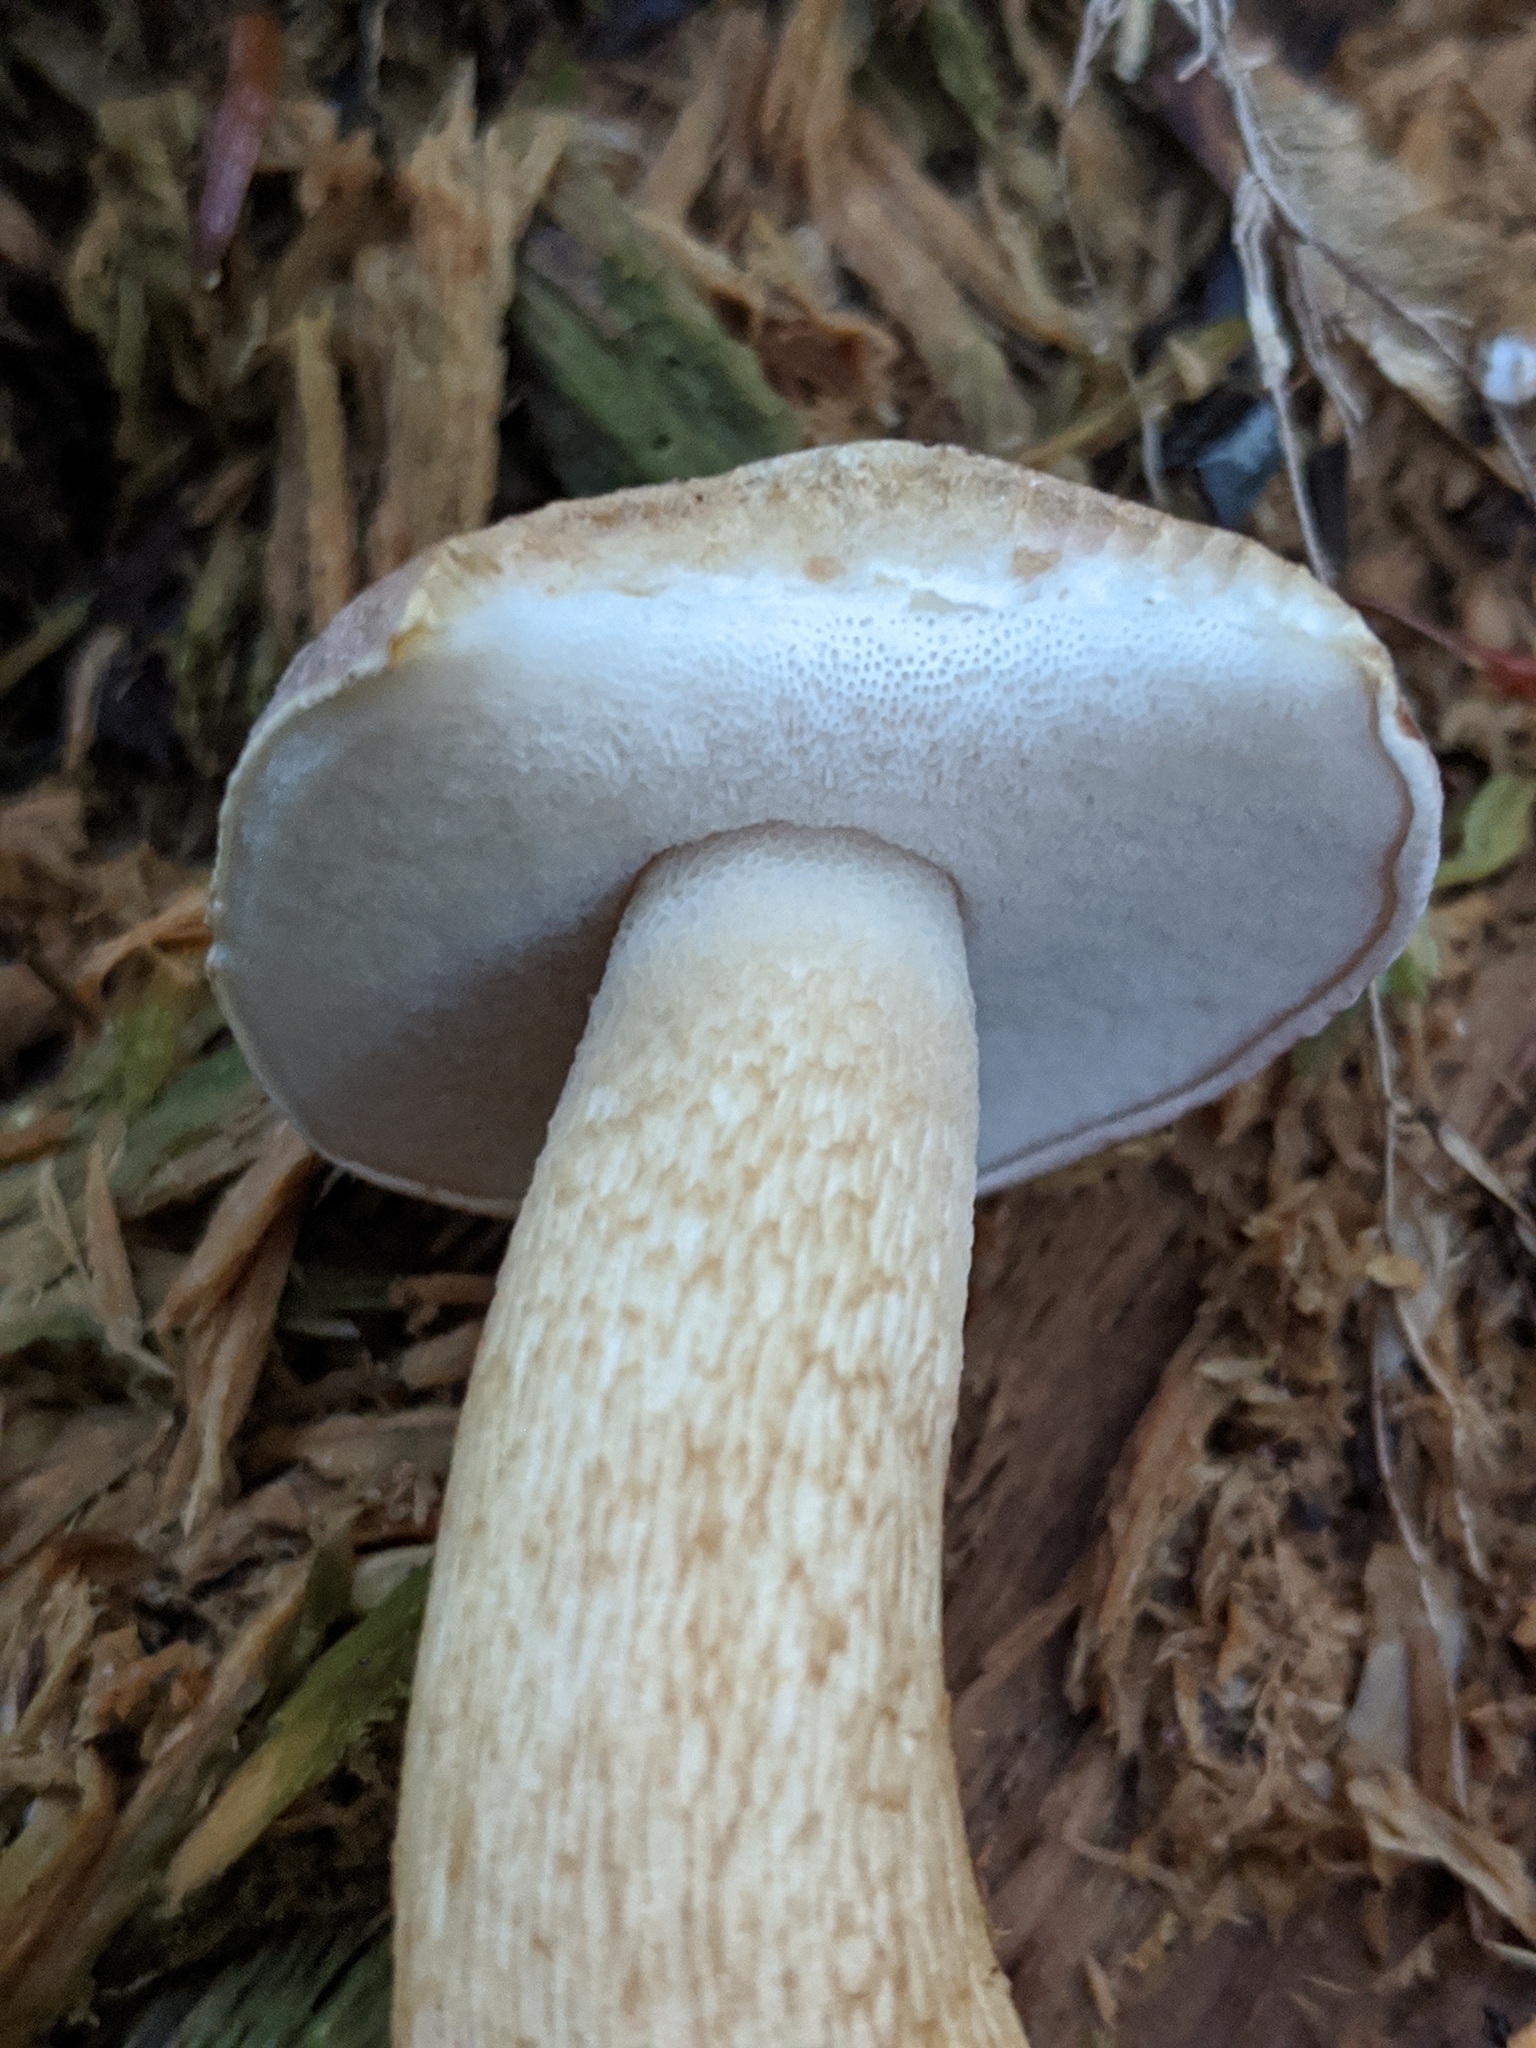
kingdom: Fungi
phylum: Basidiomycota
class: Agaricomycetes
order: Boletales
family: Boletaceae
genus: Tylopilus
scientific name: Tylopilus felleus
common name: Bitter bolete
